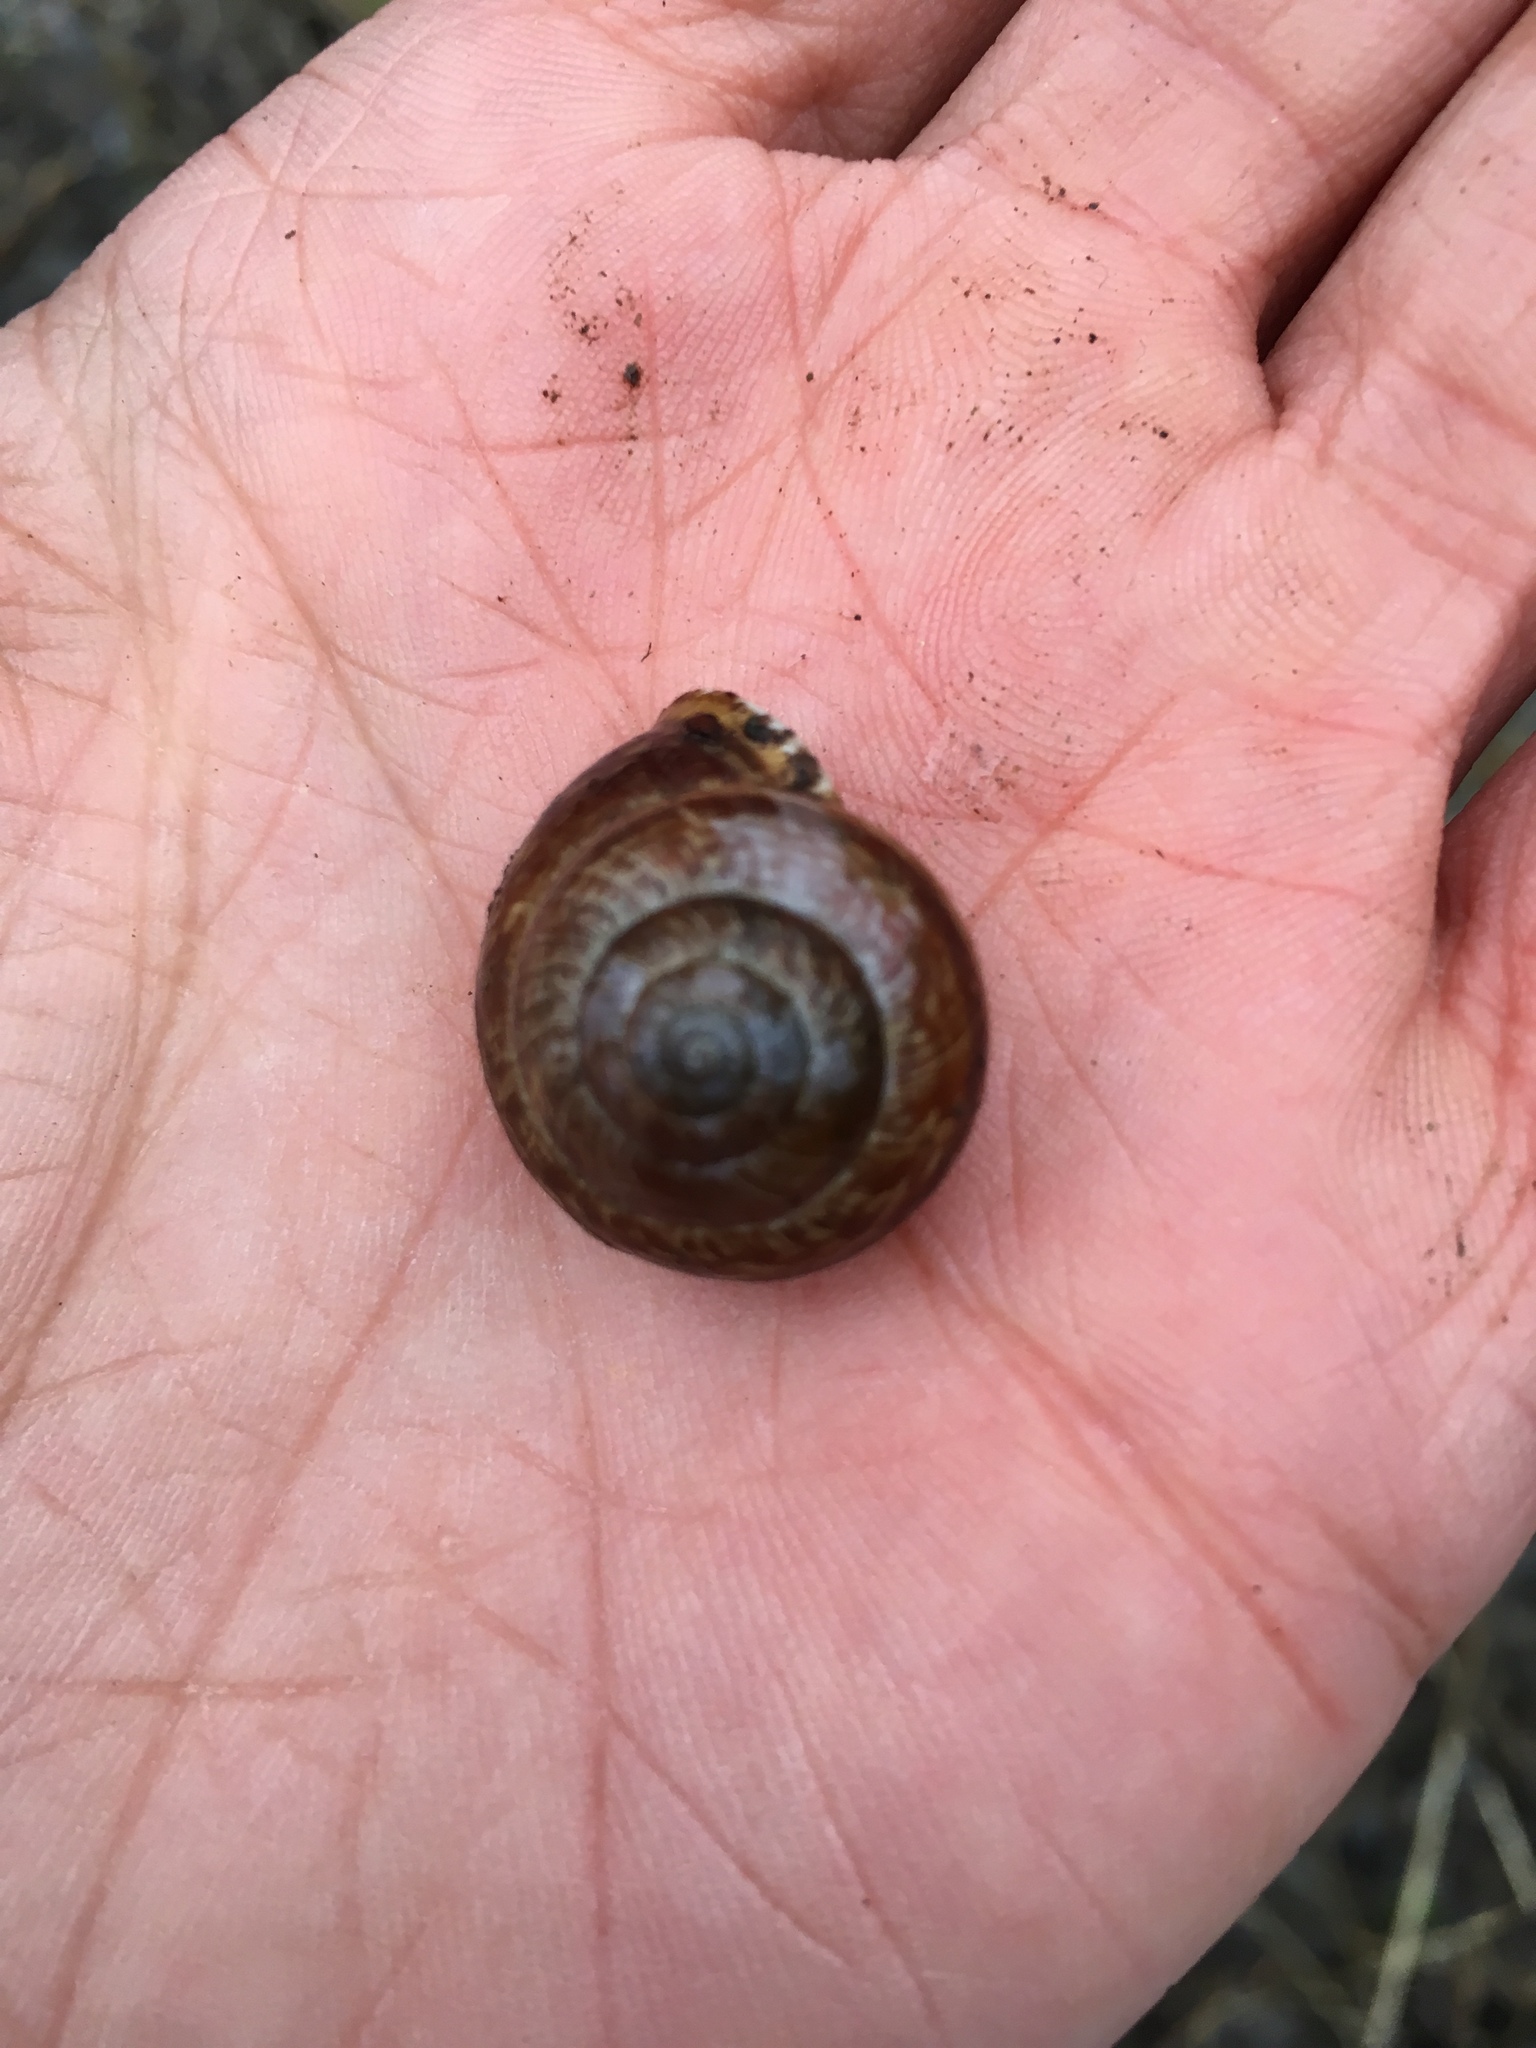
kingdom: Animalia
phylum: Mollusca
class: Gastropoda
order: Stylommatophora
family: Helicidae
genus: Arianta
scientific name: Arianta arbustorum
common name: Copse snail
